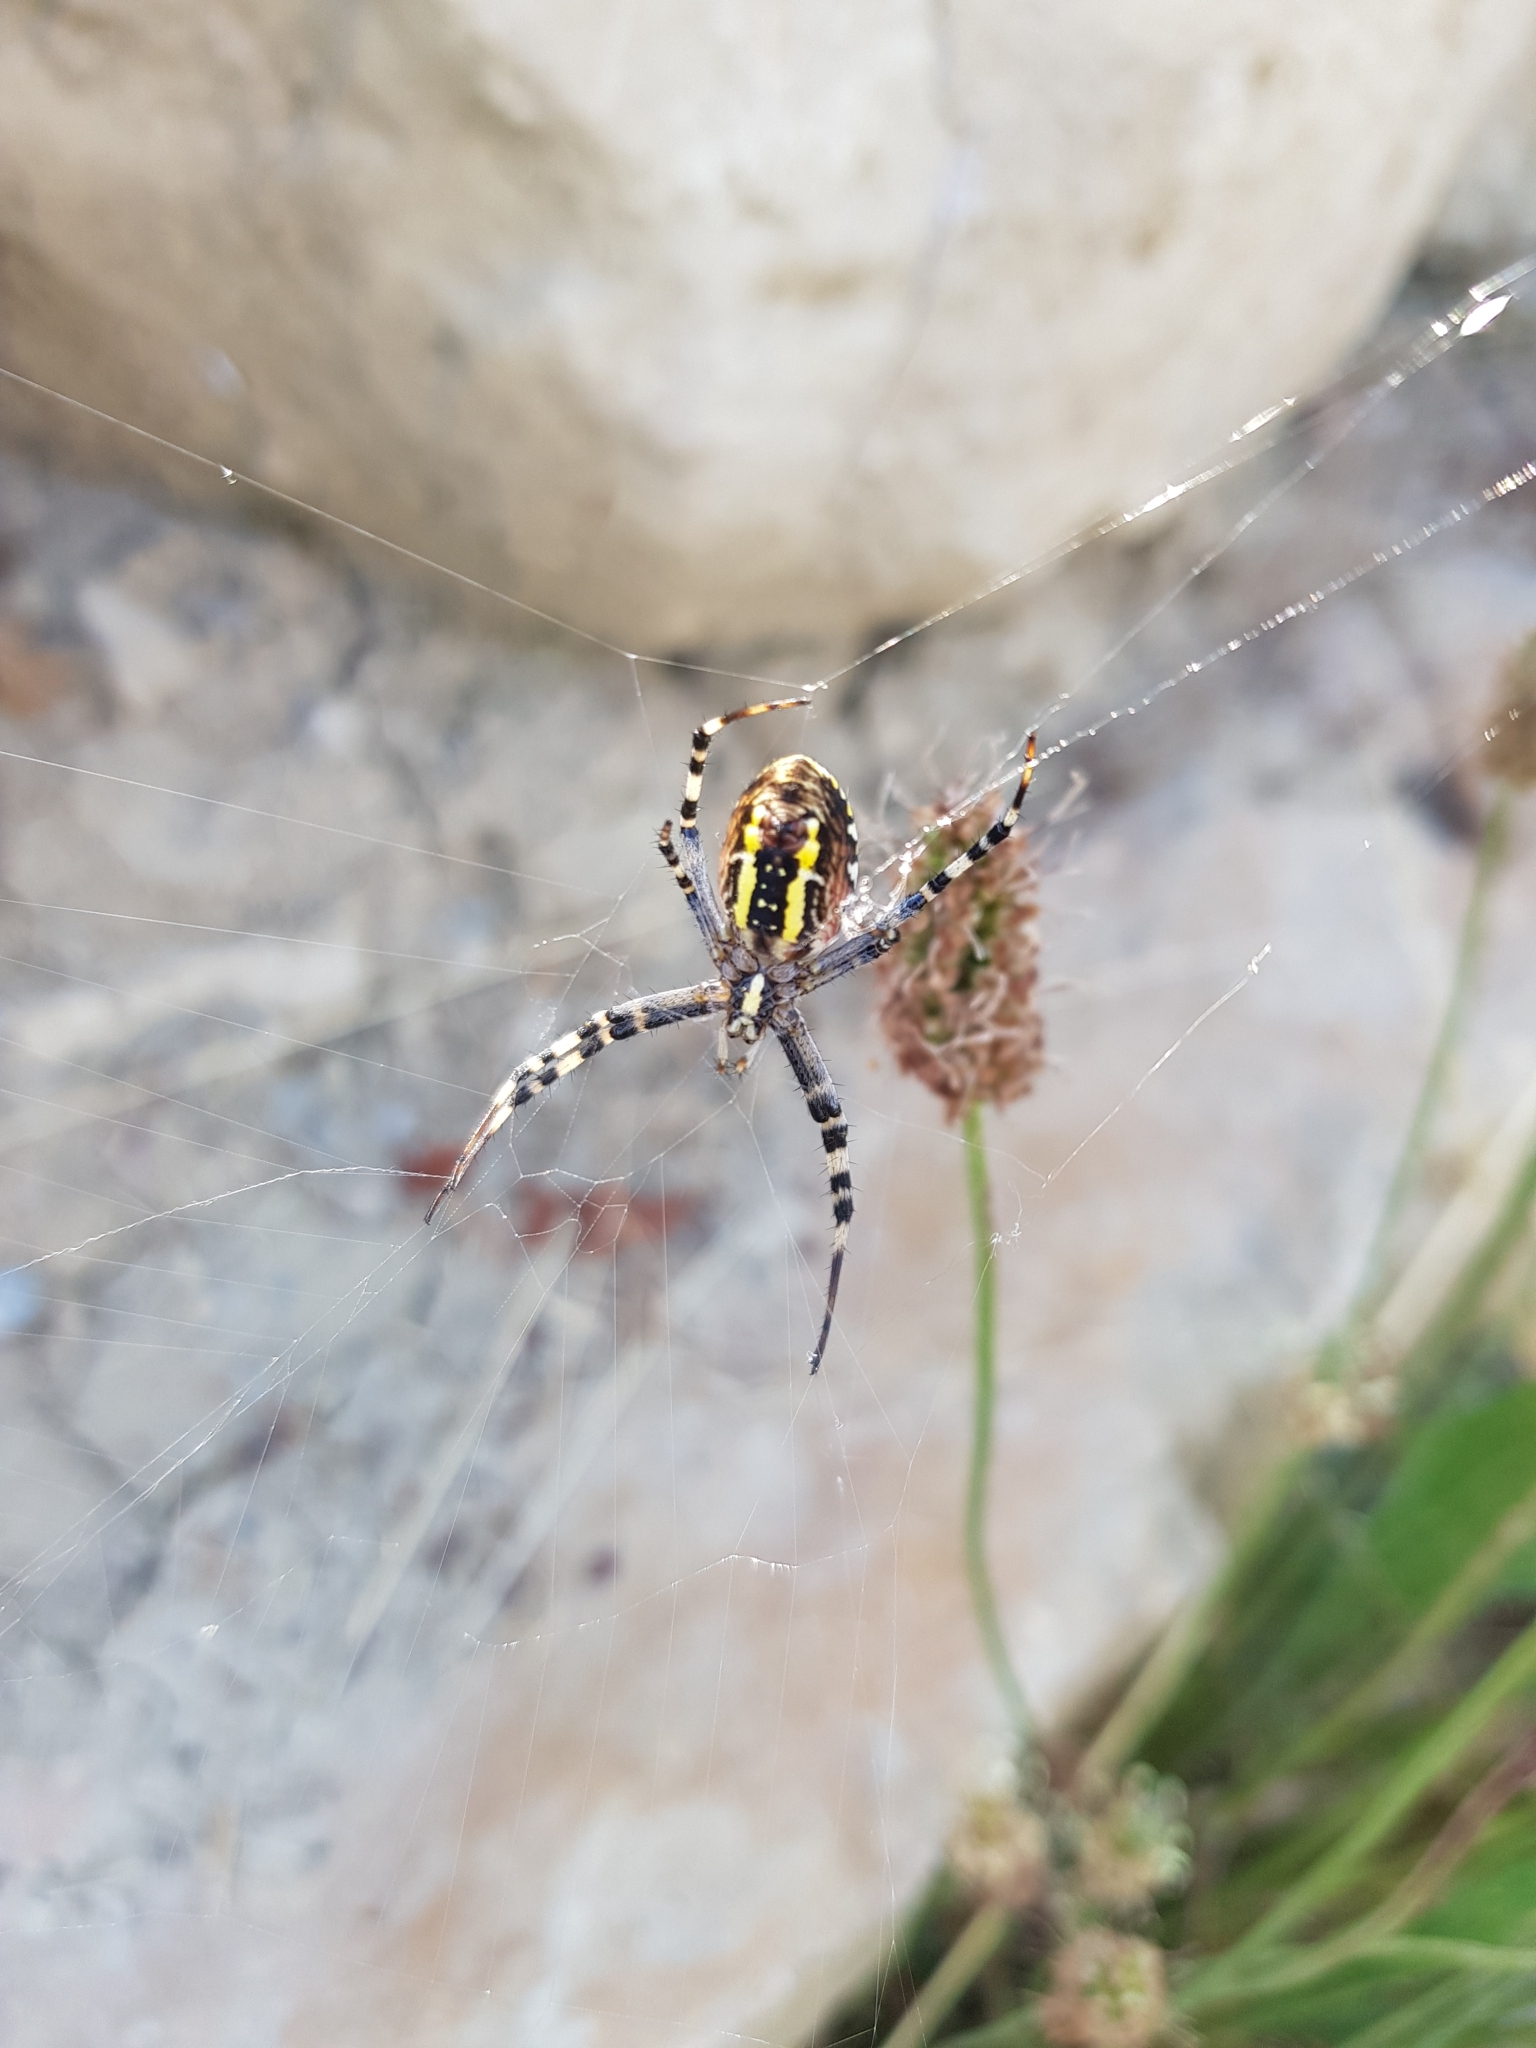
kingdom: Animalia
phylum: Arthropoda
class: Arachnida
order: Araneae
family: Araneidae
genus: Argiope
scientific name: Argiope bruennichi
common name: Wasp spider
